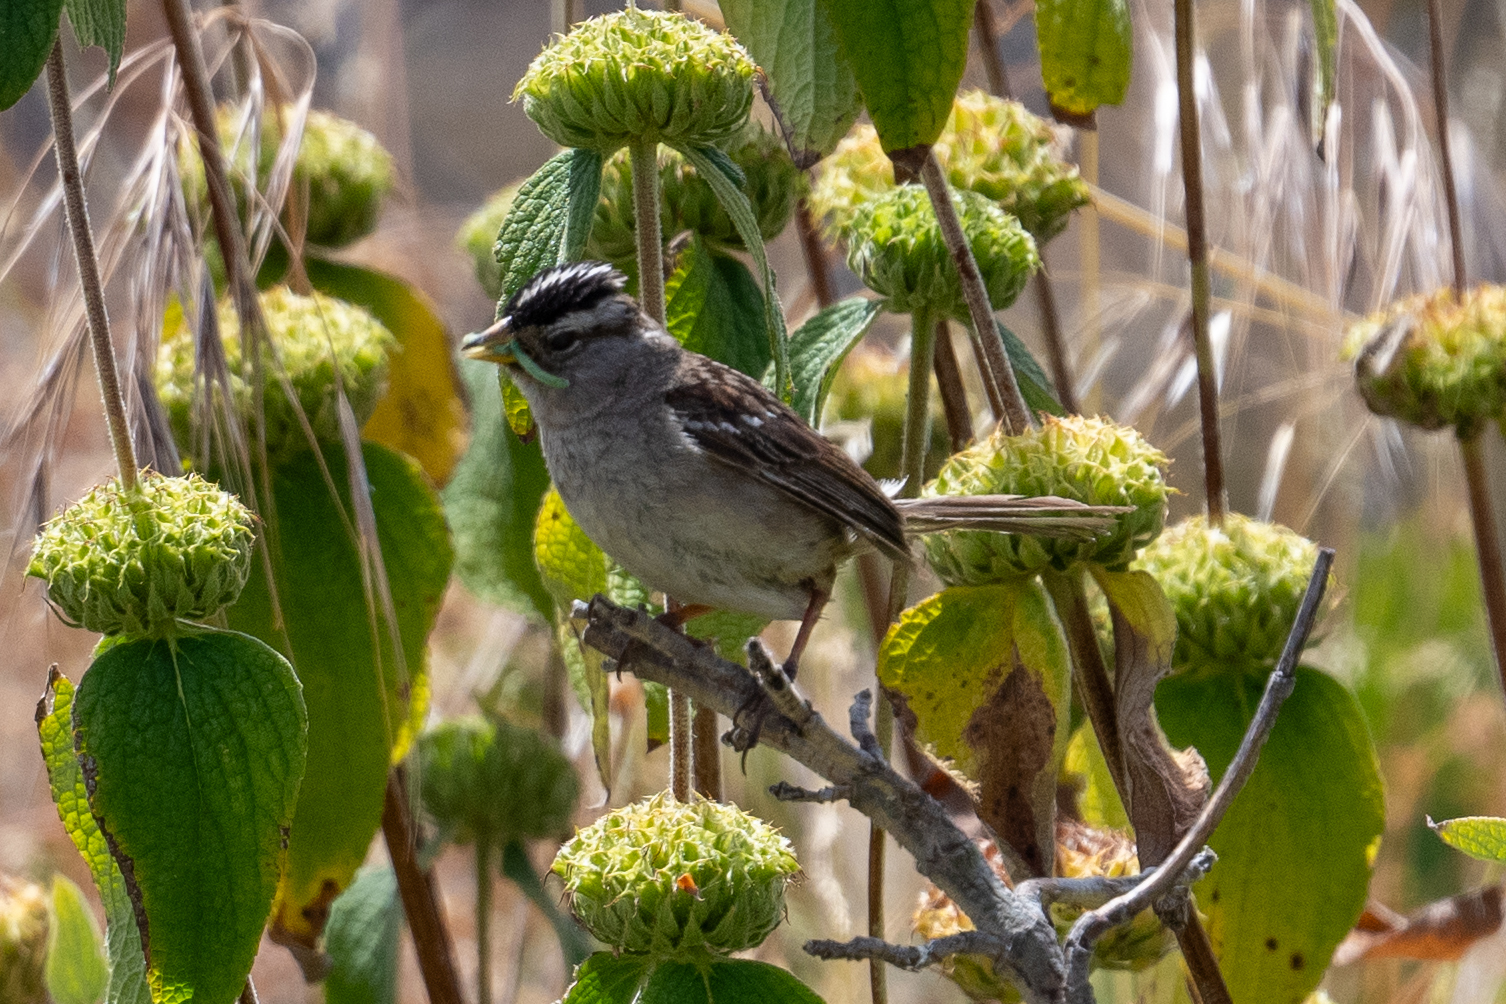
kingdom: Animalia
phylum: Chordata
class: Aves
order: Passeriformes
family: Passerellidae
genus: Zonotrichia
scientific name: Zonotrichia leucophrys
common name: White-crowned sparrow
